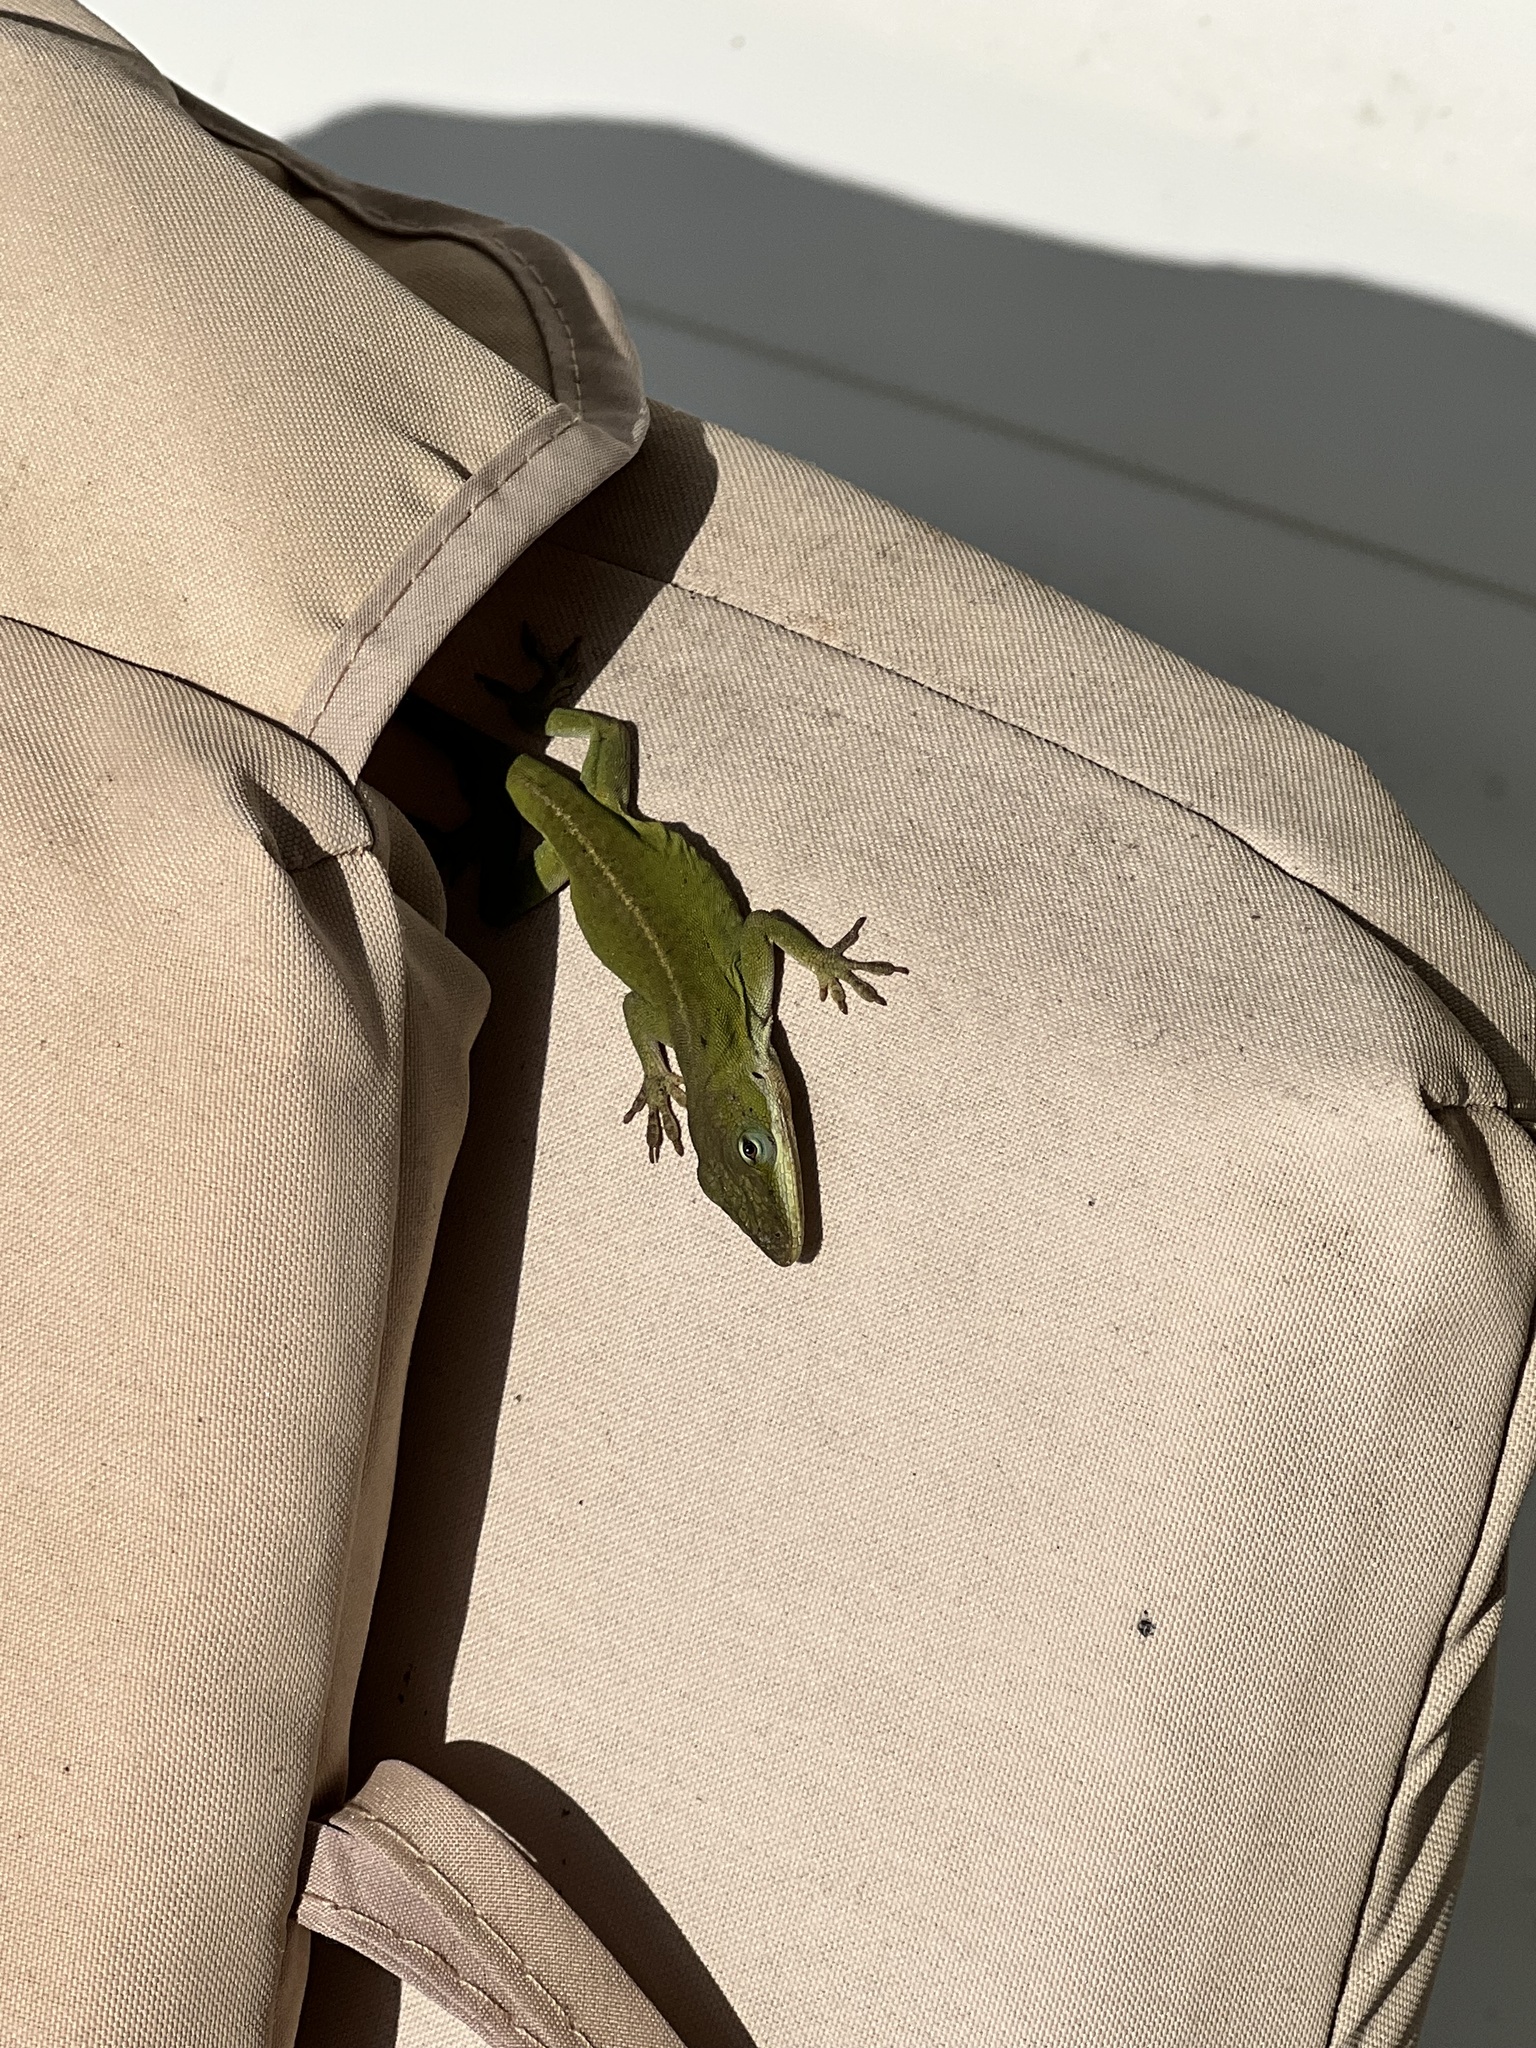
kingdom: Animalia
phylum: Chordata
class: Squamata
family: Dactyloidae
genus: Anolis
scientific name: Anolis carolinensis
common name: Green anole
